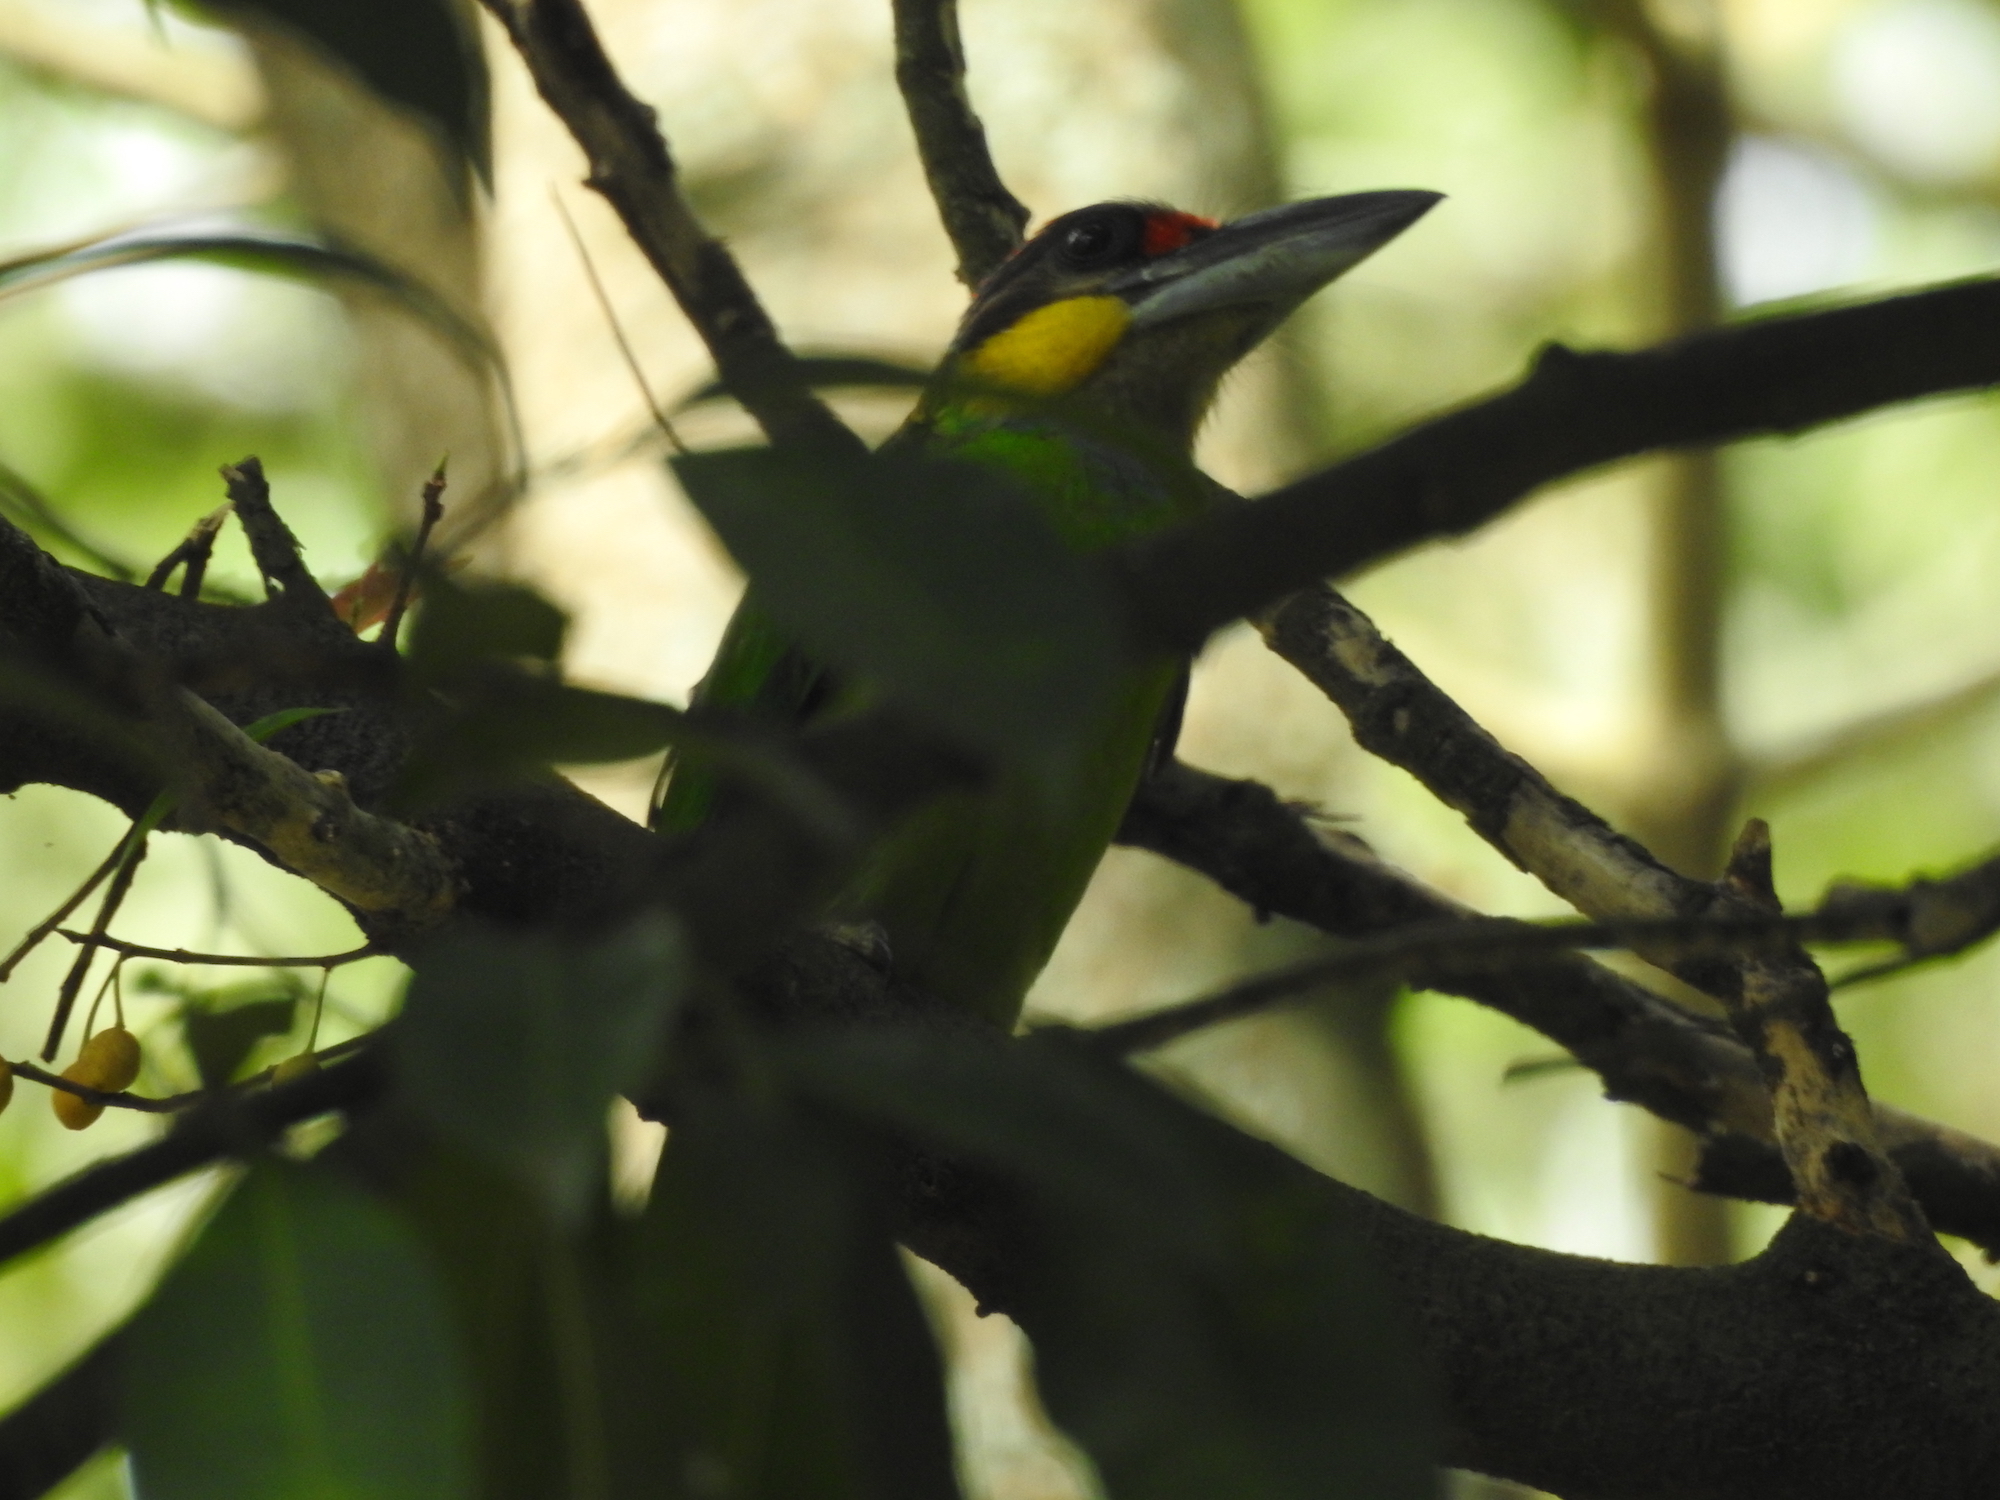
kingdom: Animalia
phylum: Chordata
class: Aves
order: Piciformes
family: Megalaimidae
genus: Psilopogon
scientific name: Psilopogon chrysopogon
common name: Golden-whiskered barbet
